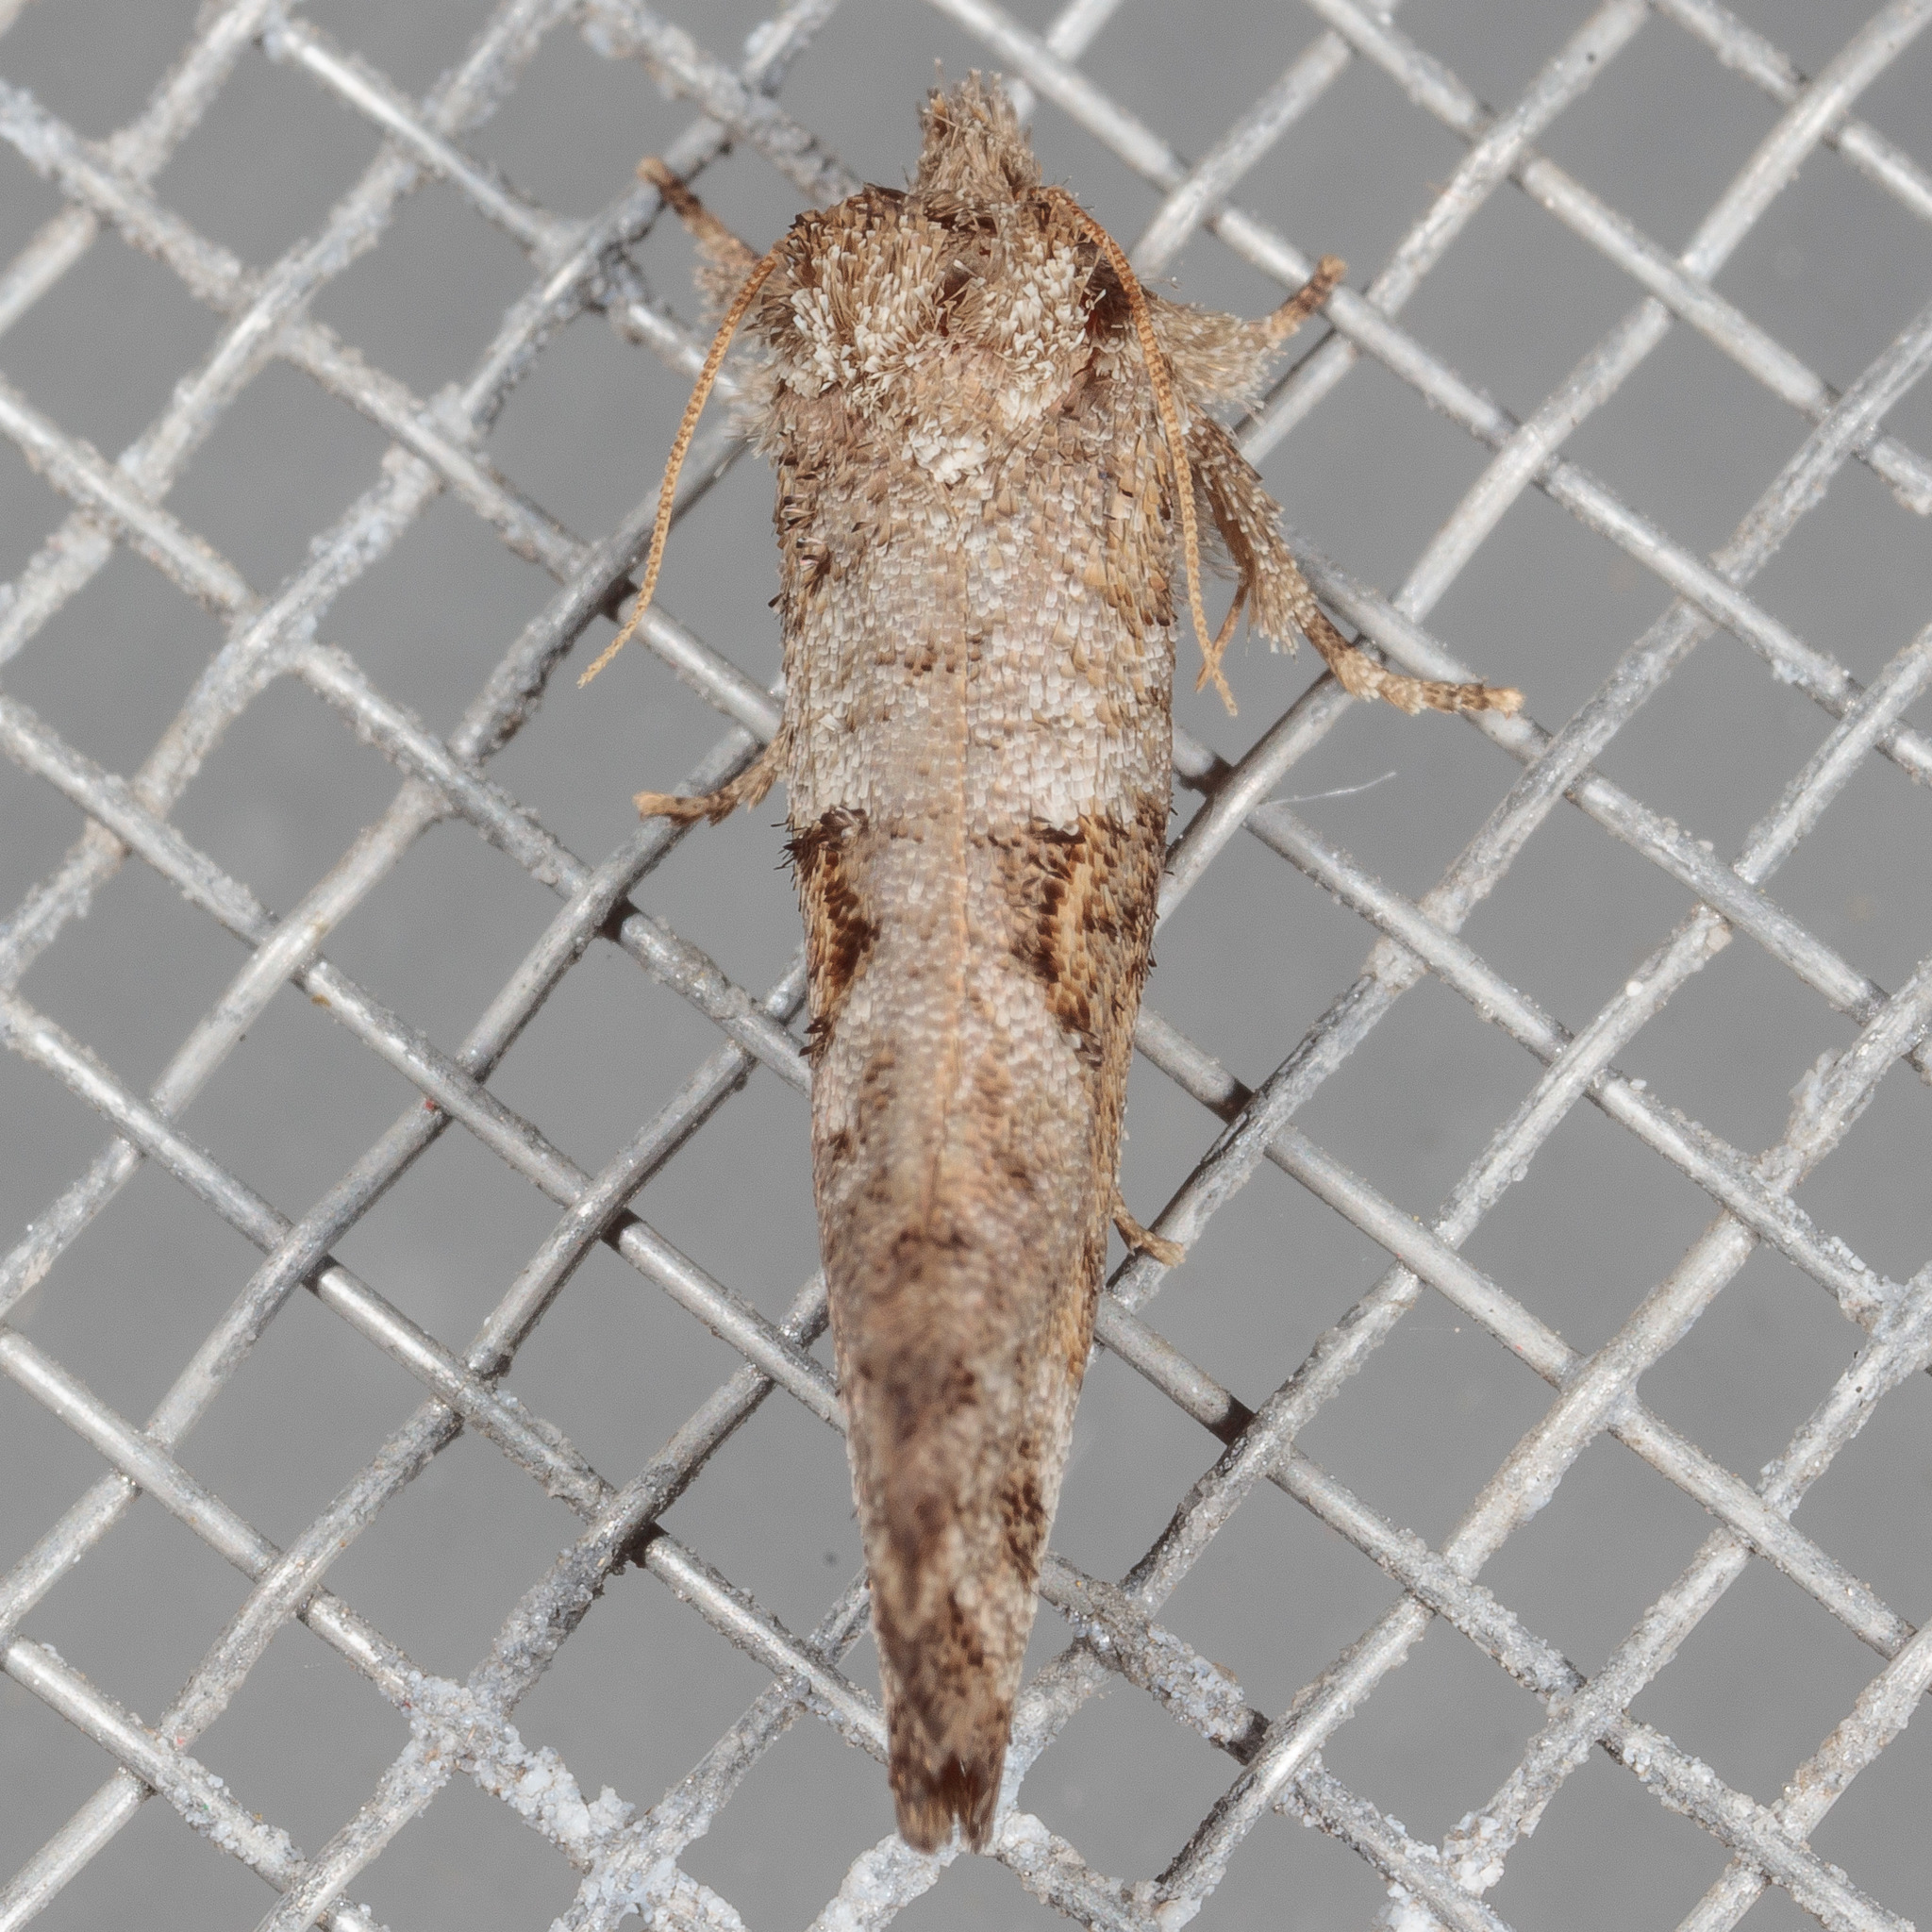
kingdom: Animalia
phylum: Arthropoda
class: Insecta
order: Lepidoptera
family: Tineidae
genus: Acrolophus
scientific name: Acrolophus piger
